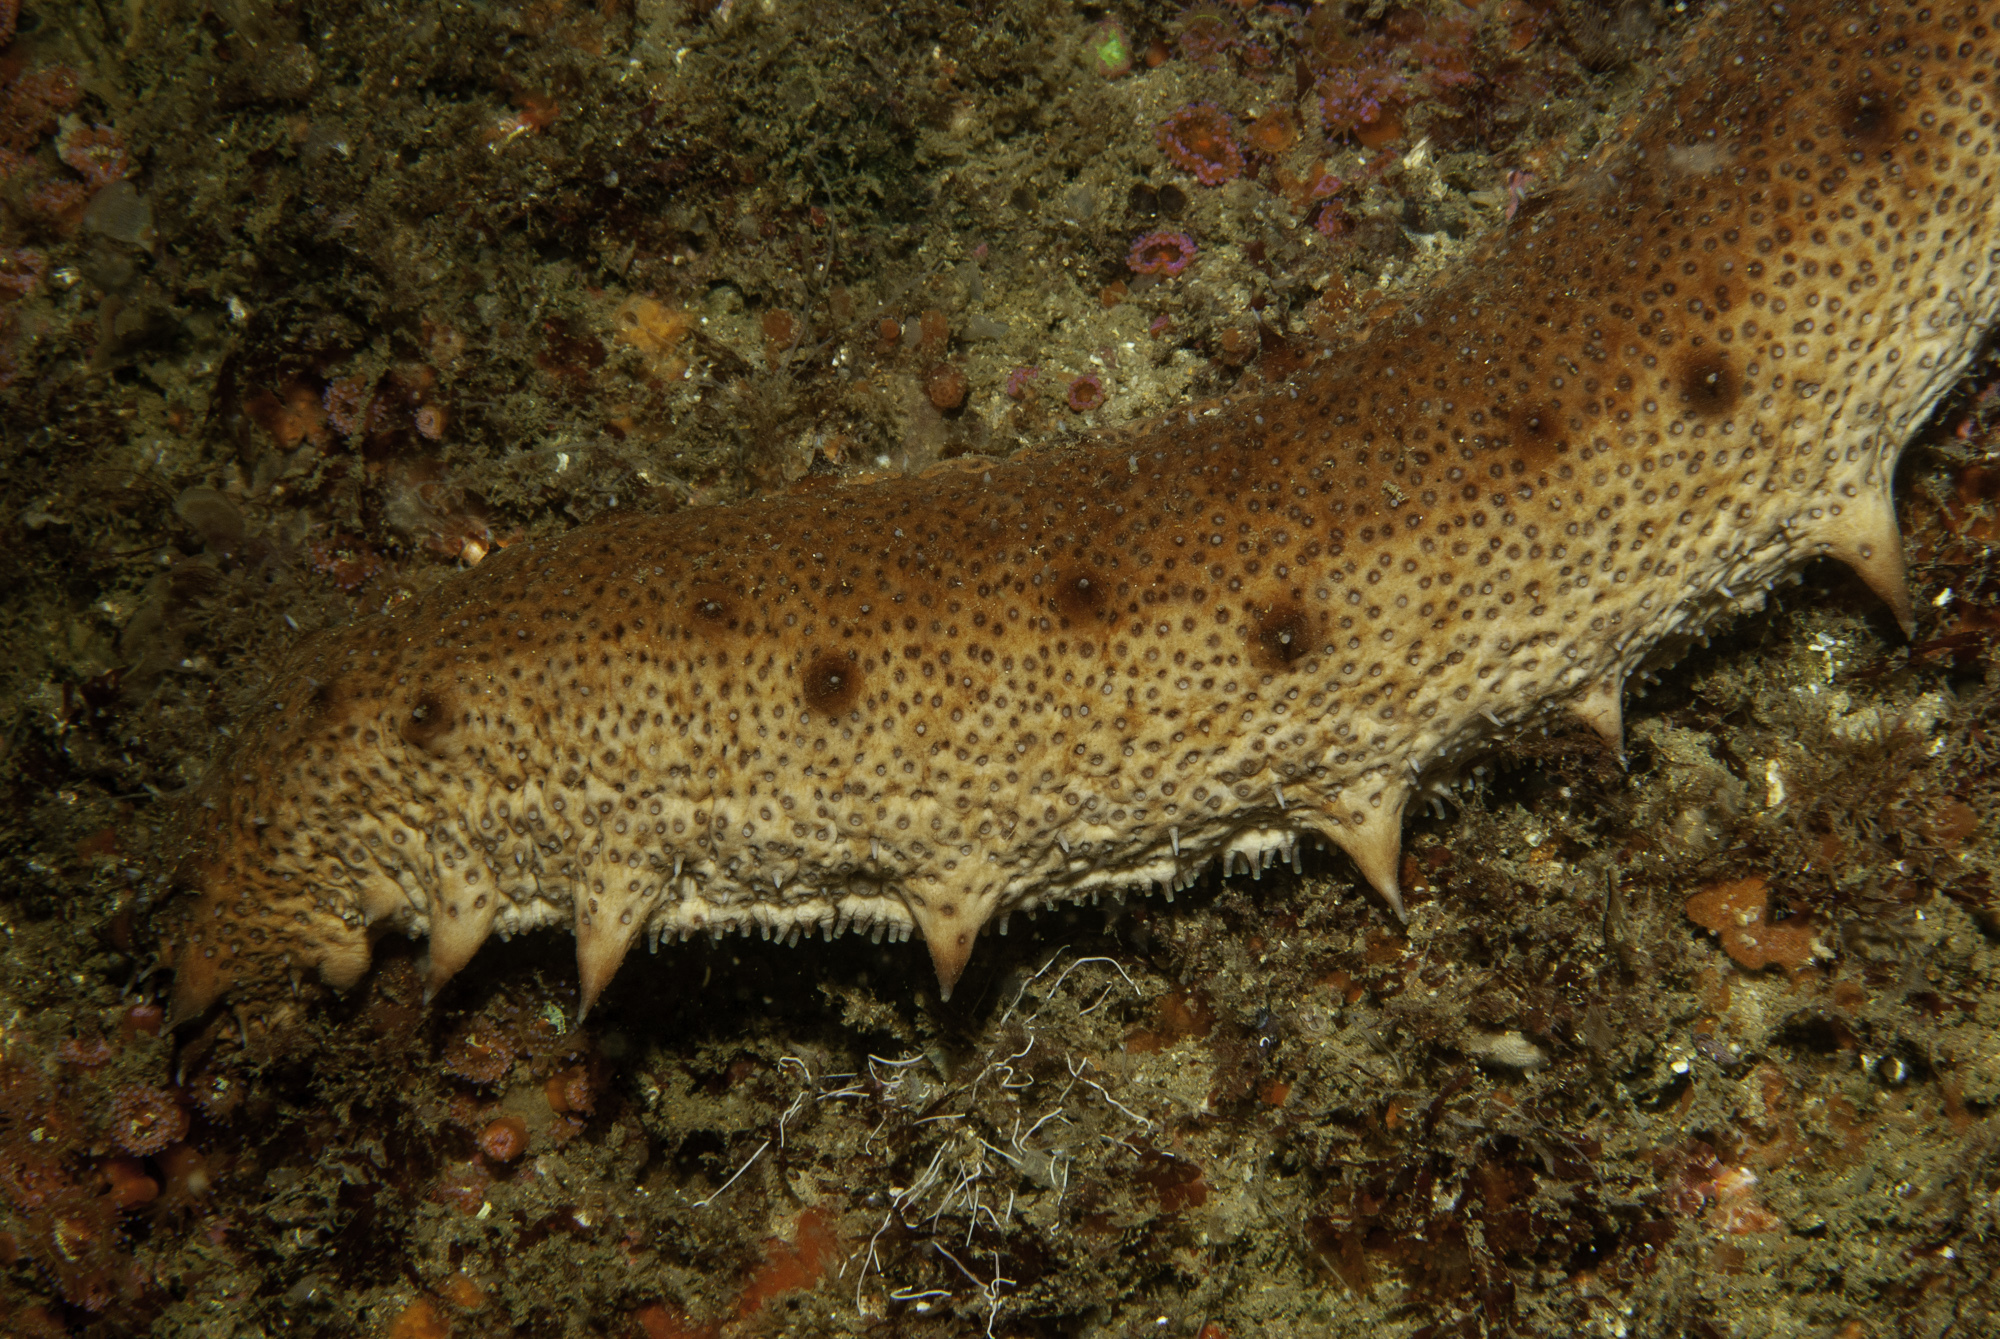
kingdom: Animalia
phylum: Echinodermata
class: Holothuroidea
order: Holothuriida
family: Holothuriidae
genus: Holothuria
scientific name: Holothuria arguinensis
